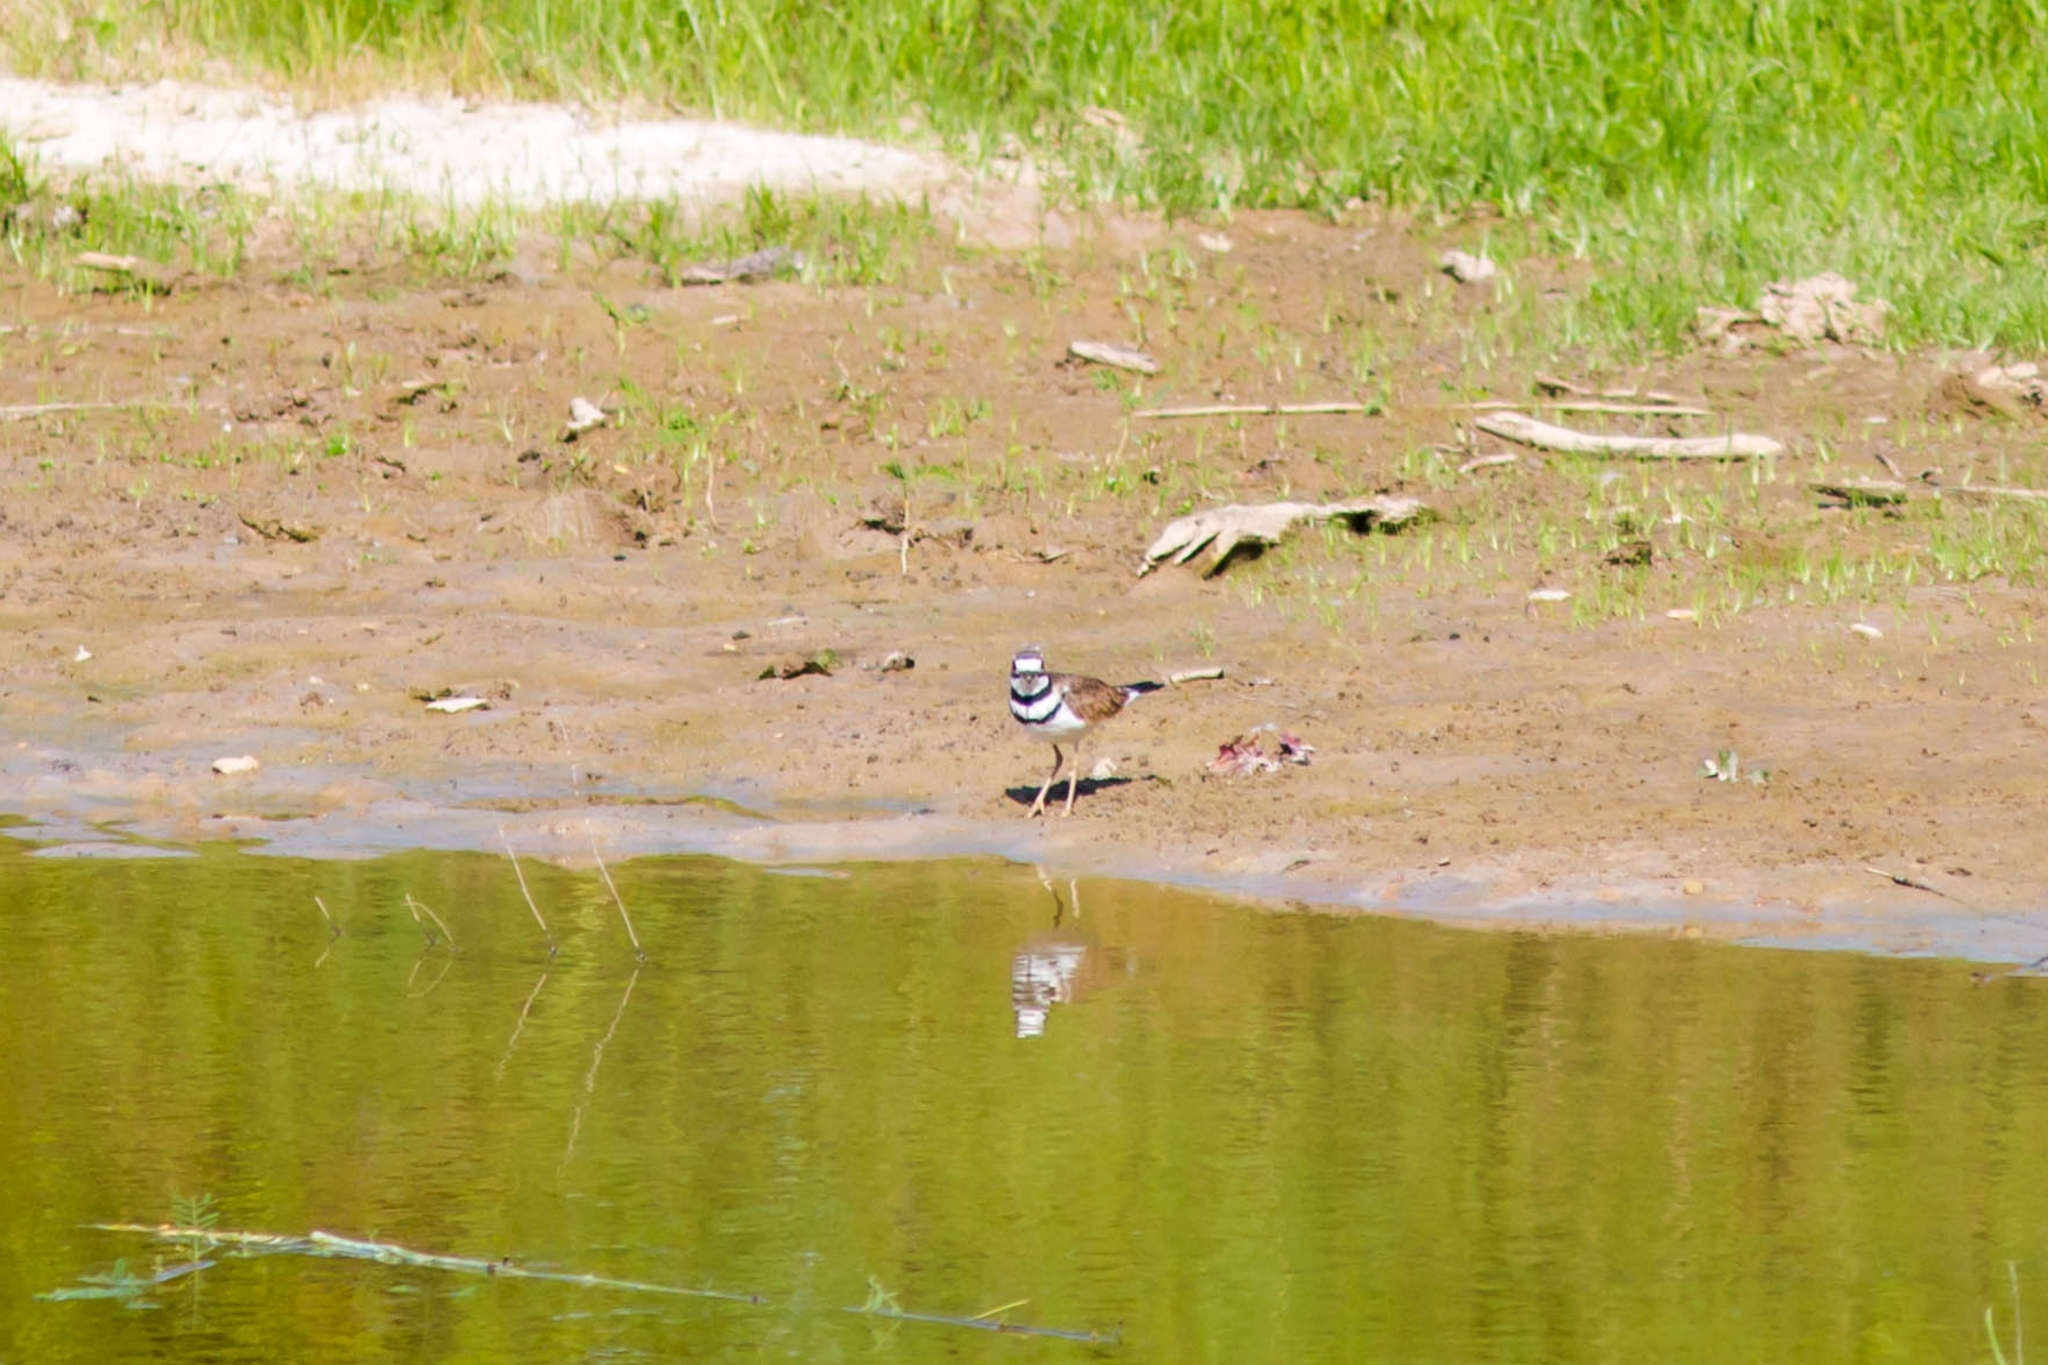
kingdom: Animalia
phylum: Chordata
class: Aves
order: Charadriiformes
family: Charadriidae
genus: Charadrius
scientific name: Charadrius vociferus
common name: Killdeer
